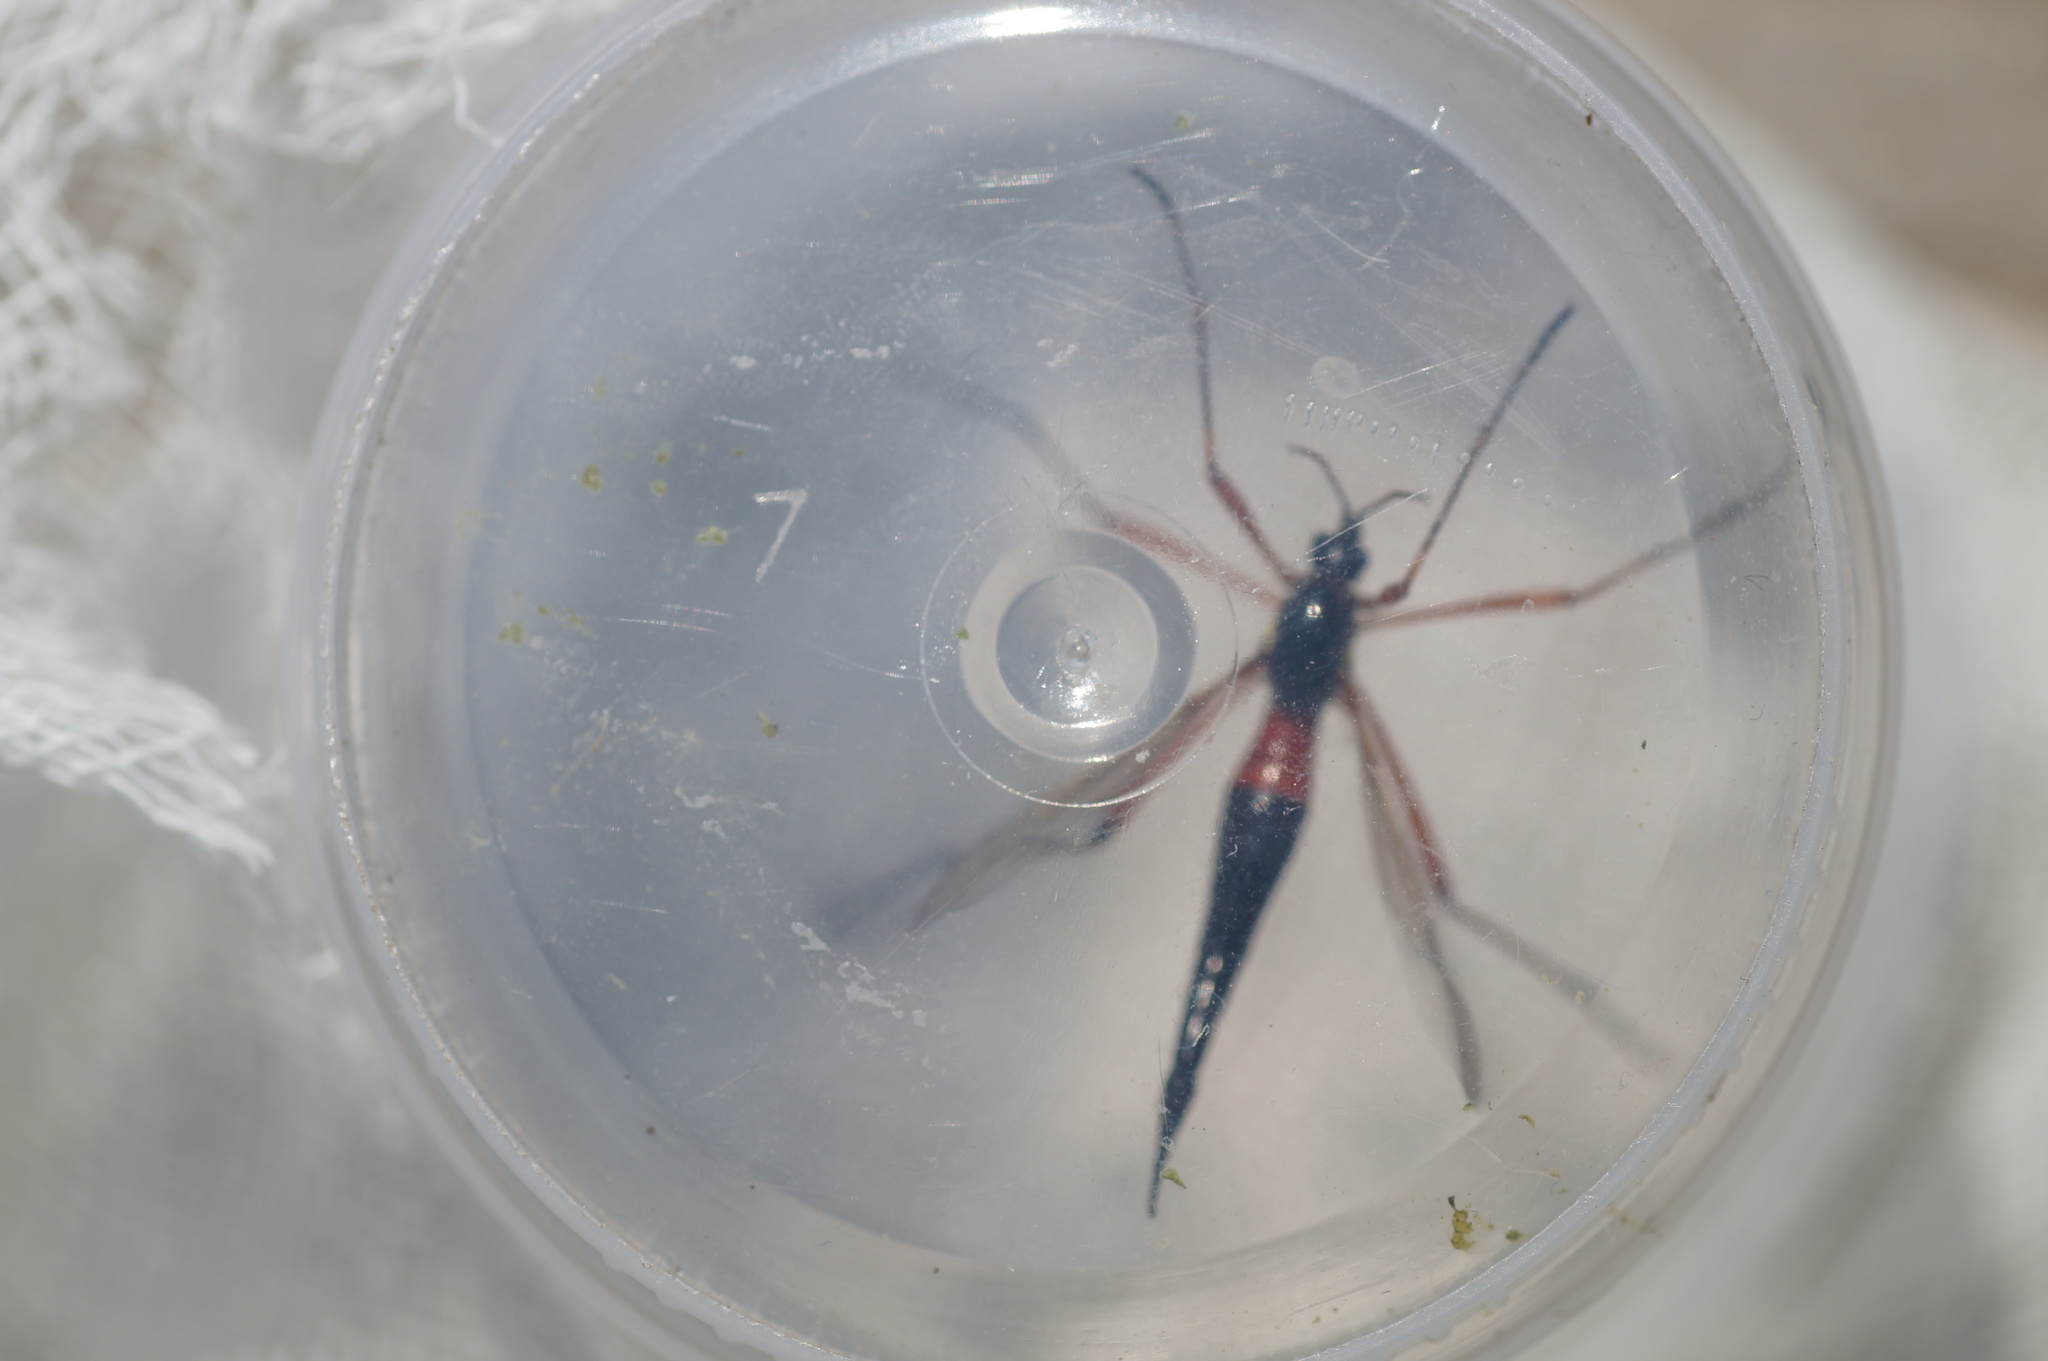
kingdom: Animalia
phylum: Arthropoda
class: Insecta
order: Diptera
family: Tipulidae
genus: Tanyptera
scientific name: Tanyptera atrata
